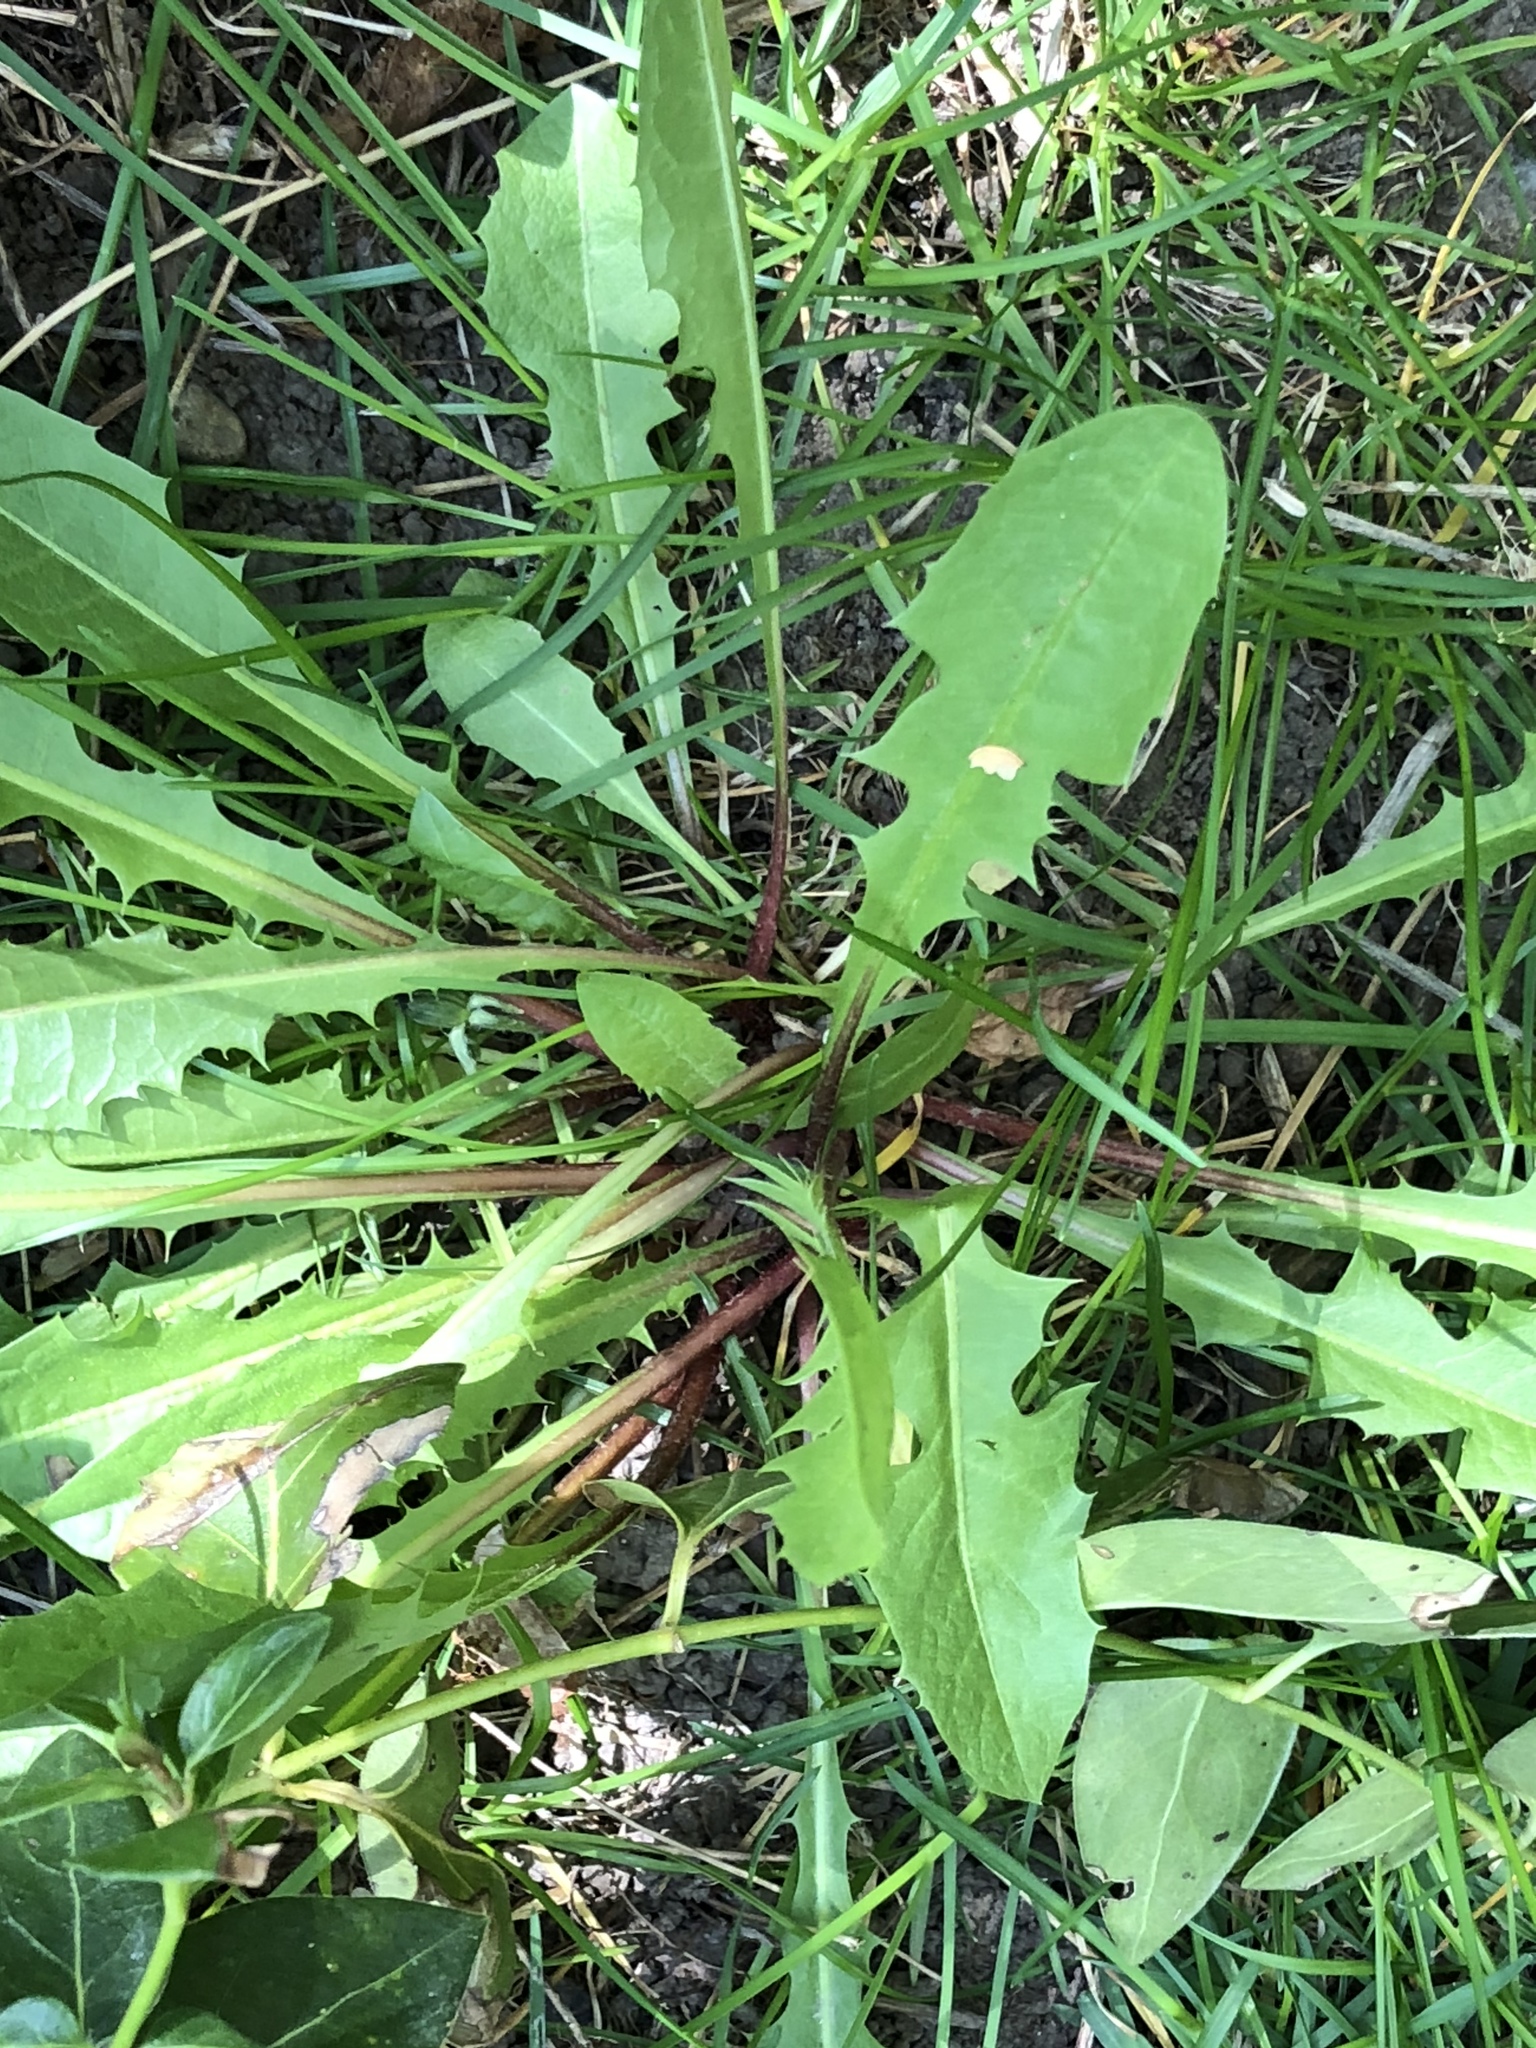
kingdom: Plantae
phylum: Tracheophyta
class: Magnoliopsida
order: Asterales
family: Asteraceae
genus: Taraxacum
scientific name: Taraxacum officinale
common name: Common dandelion
